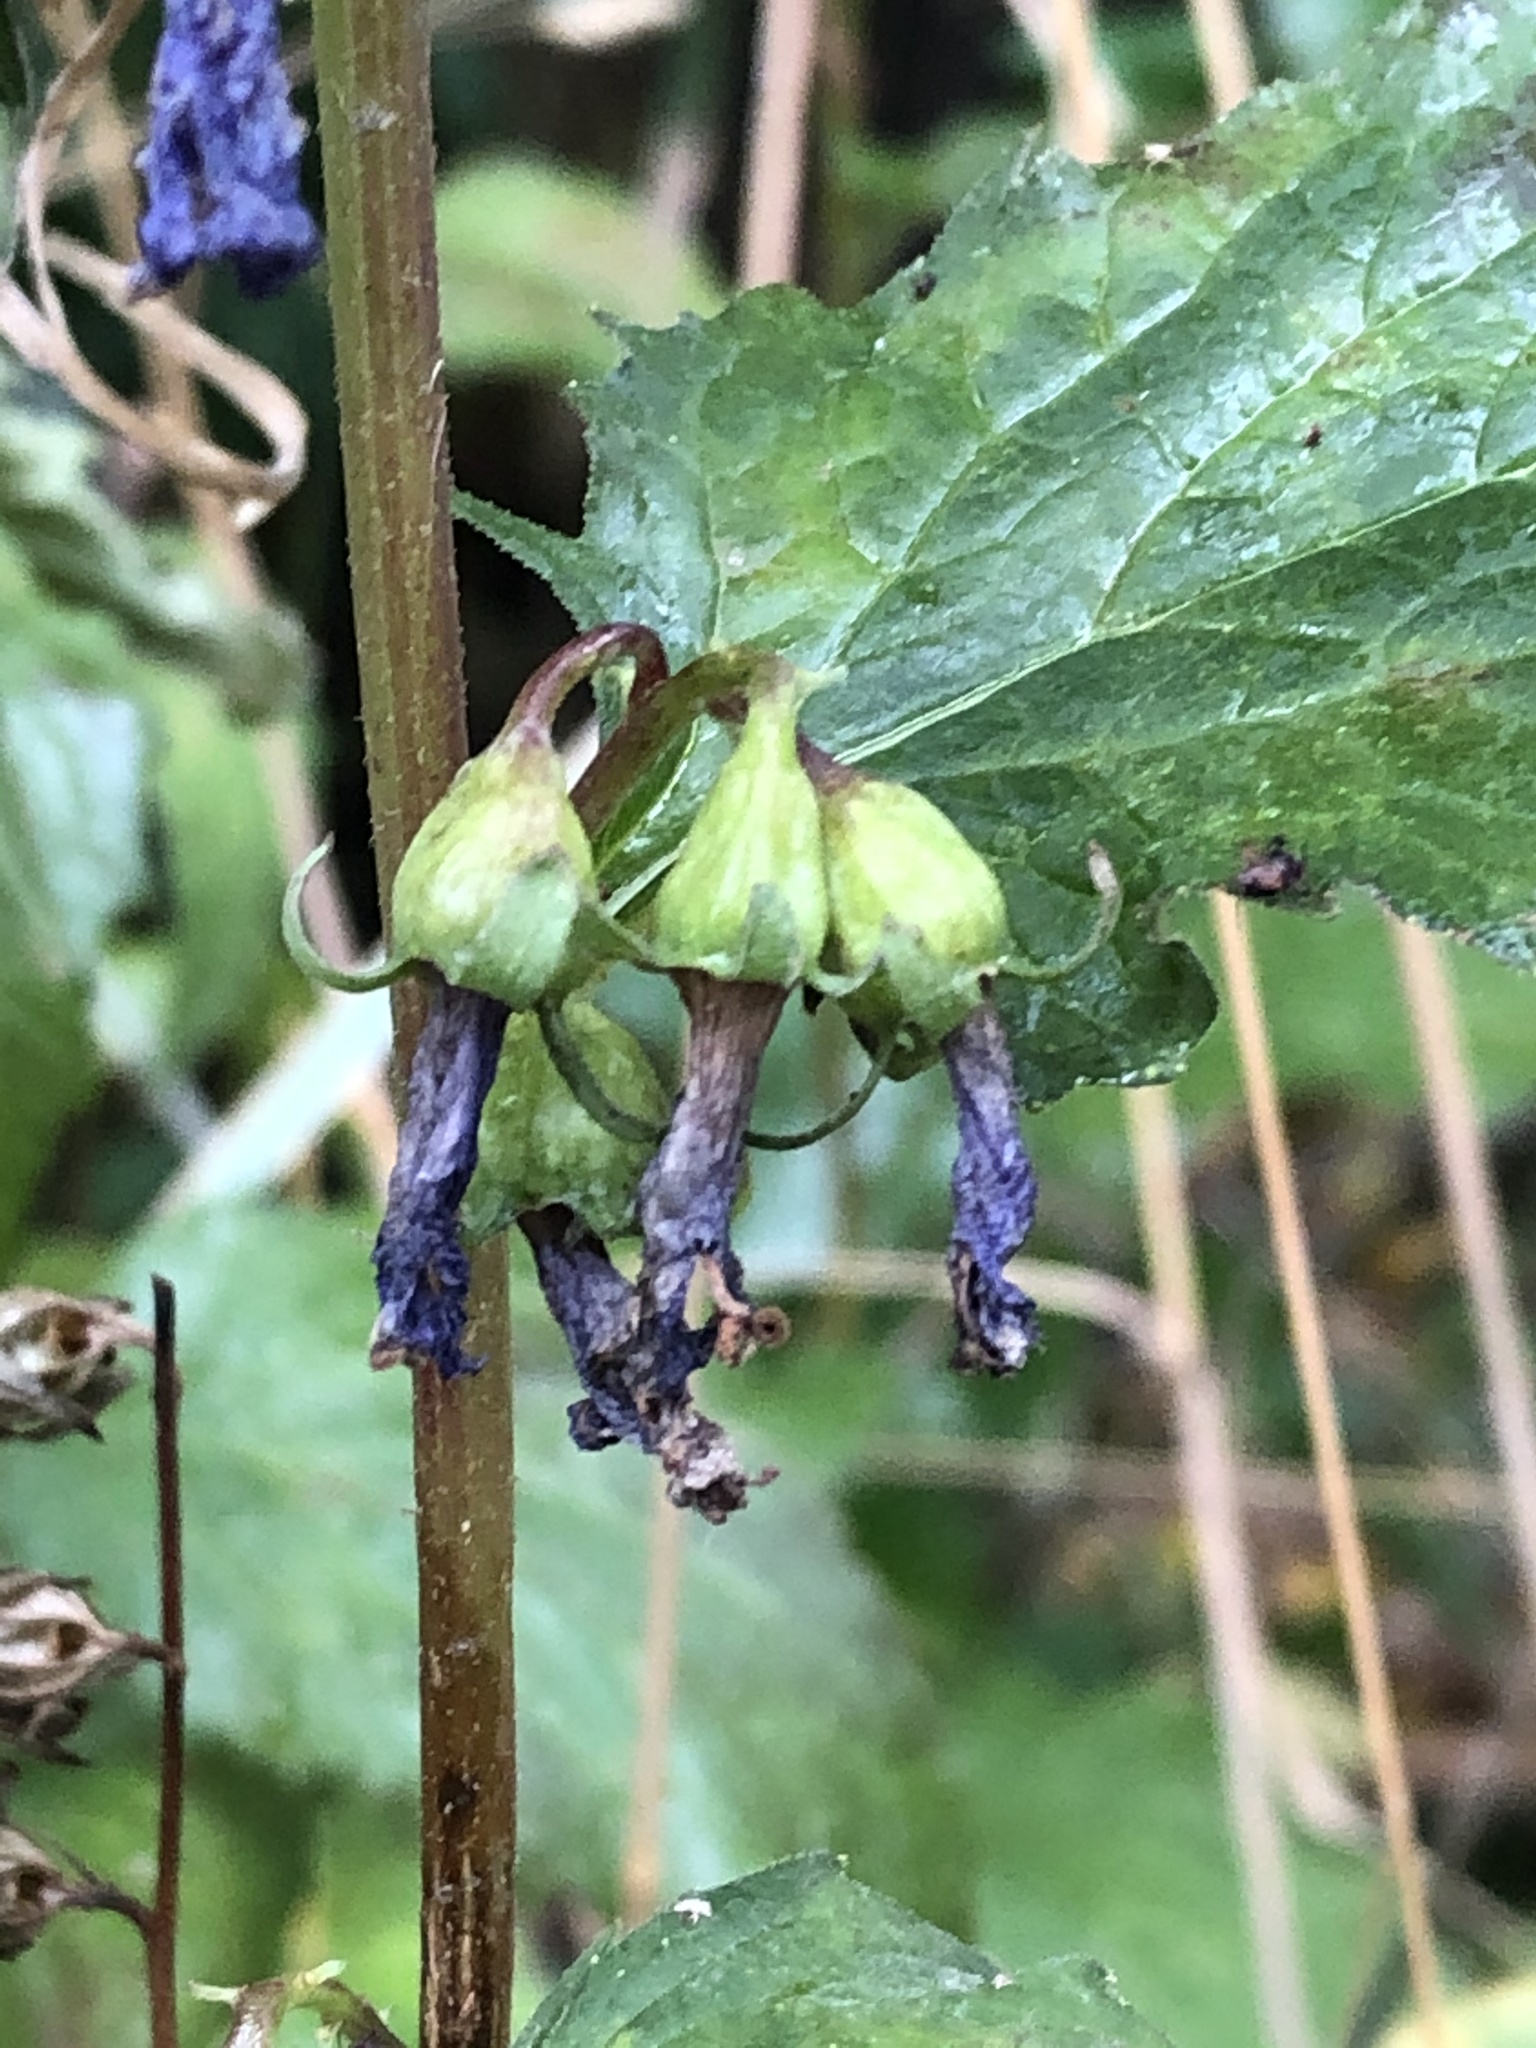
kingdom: Plantae
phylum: Tracheophyta
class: Magnoliopsida
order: Asterales
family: Campanulaceae
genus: Campanula
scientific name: Campanula rapunculoides
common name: Creeping bellflower
